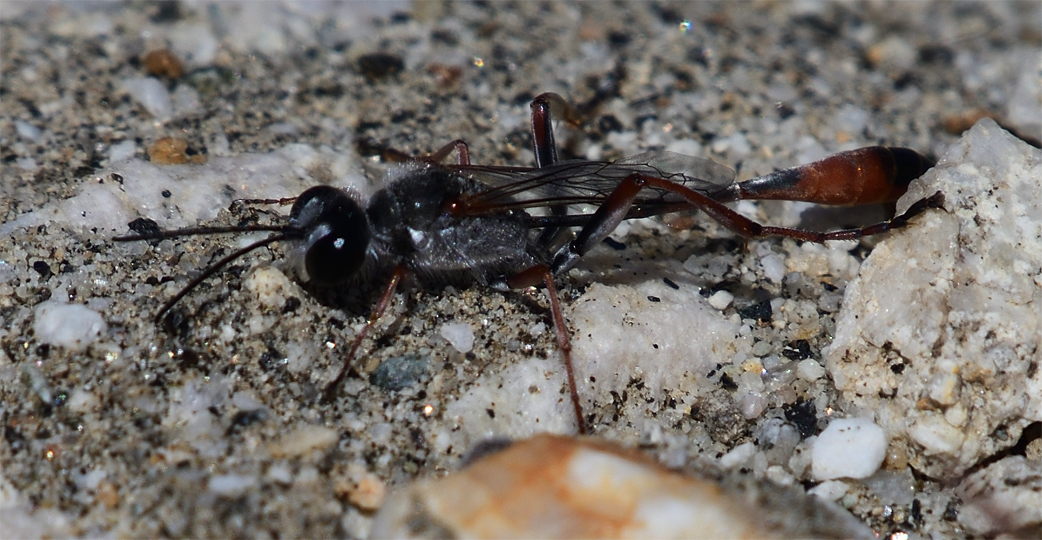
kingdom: Animalia
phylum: Arthropoda
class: Insecta
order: Hymenoptera
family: Sphecidae
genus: Ammophila
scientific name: Ammophila aberti
